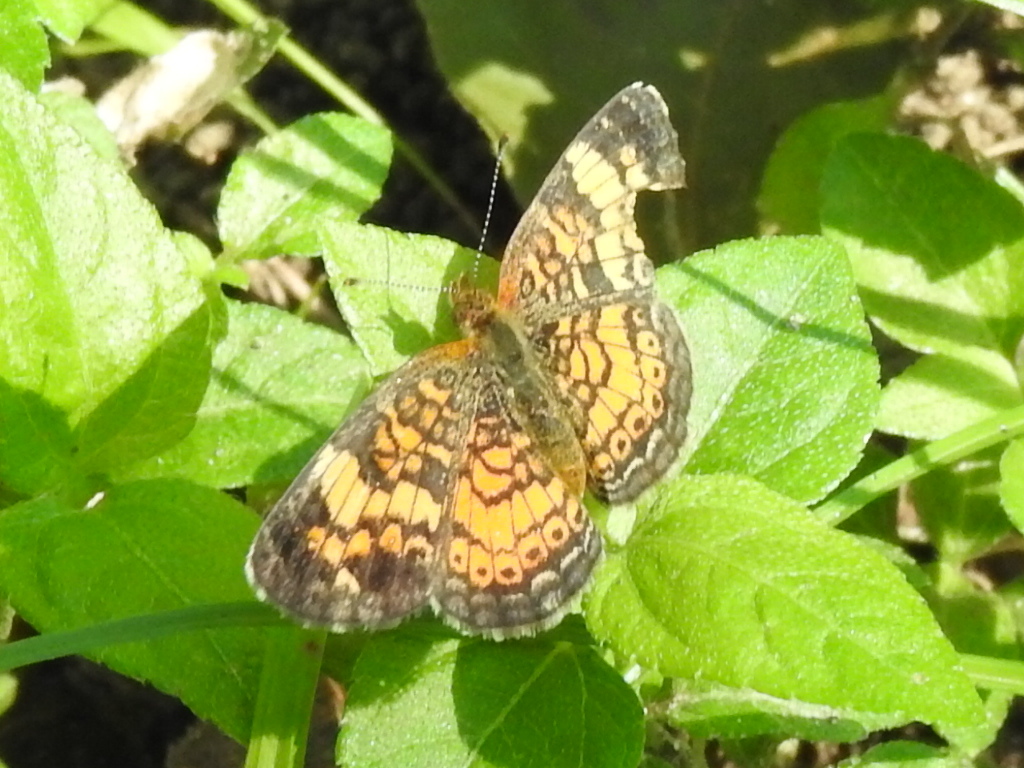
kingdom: Animalia
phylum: Arthropoda
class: Insecta
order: Lepidoptera
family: Nymphalidae
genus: Phyciodes
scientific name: Phyciodes tharos
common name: Pearl crescent
